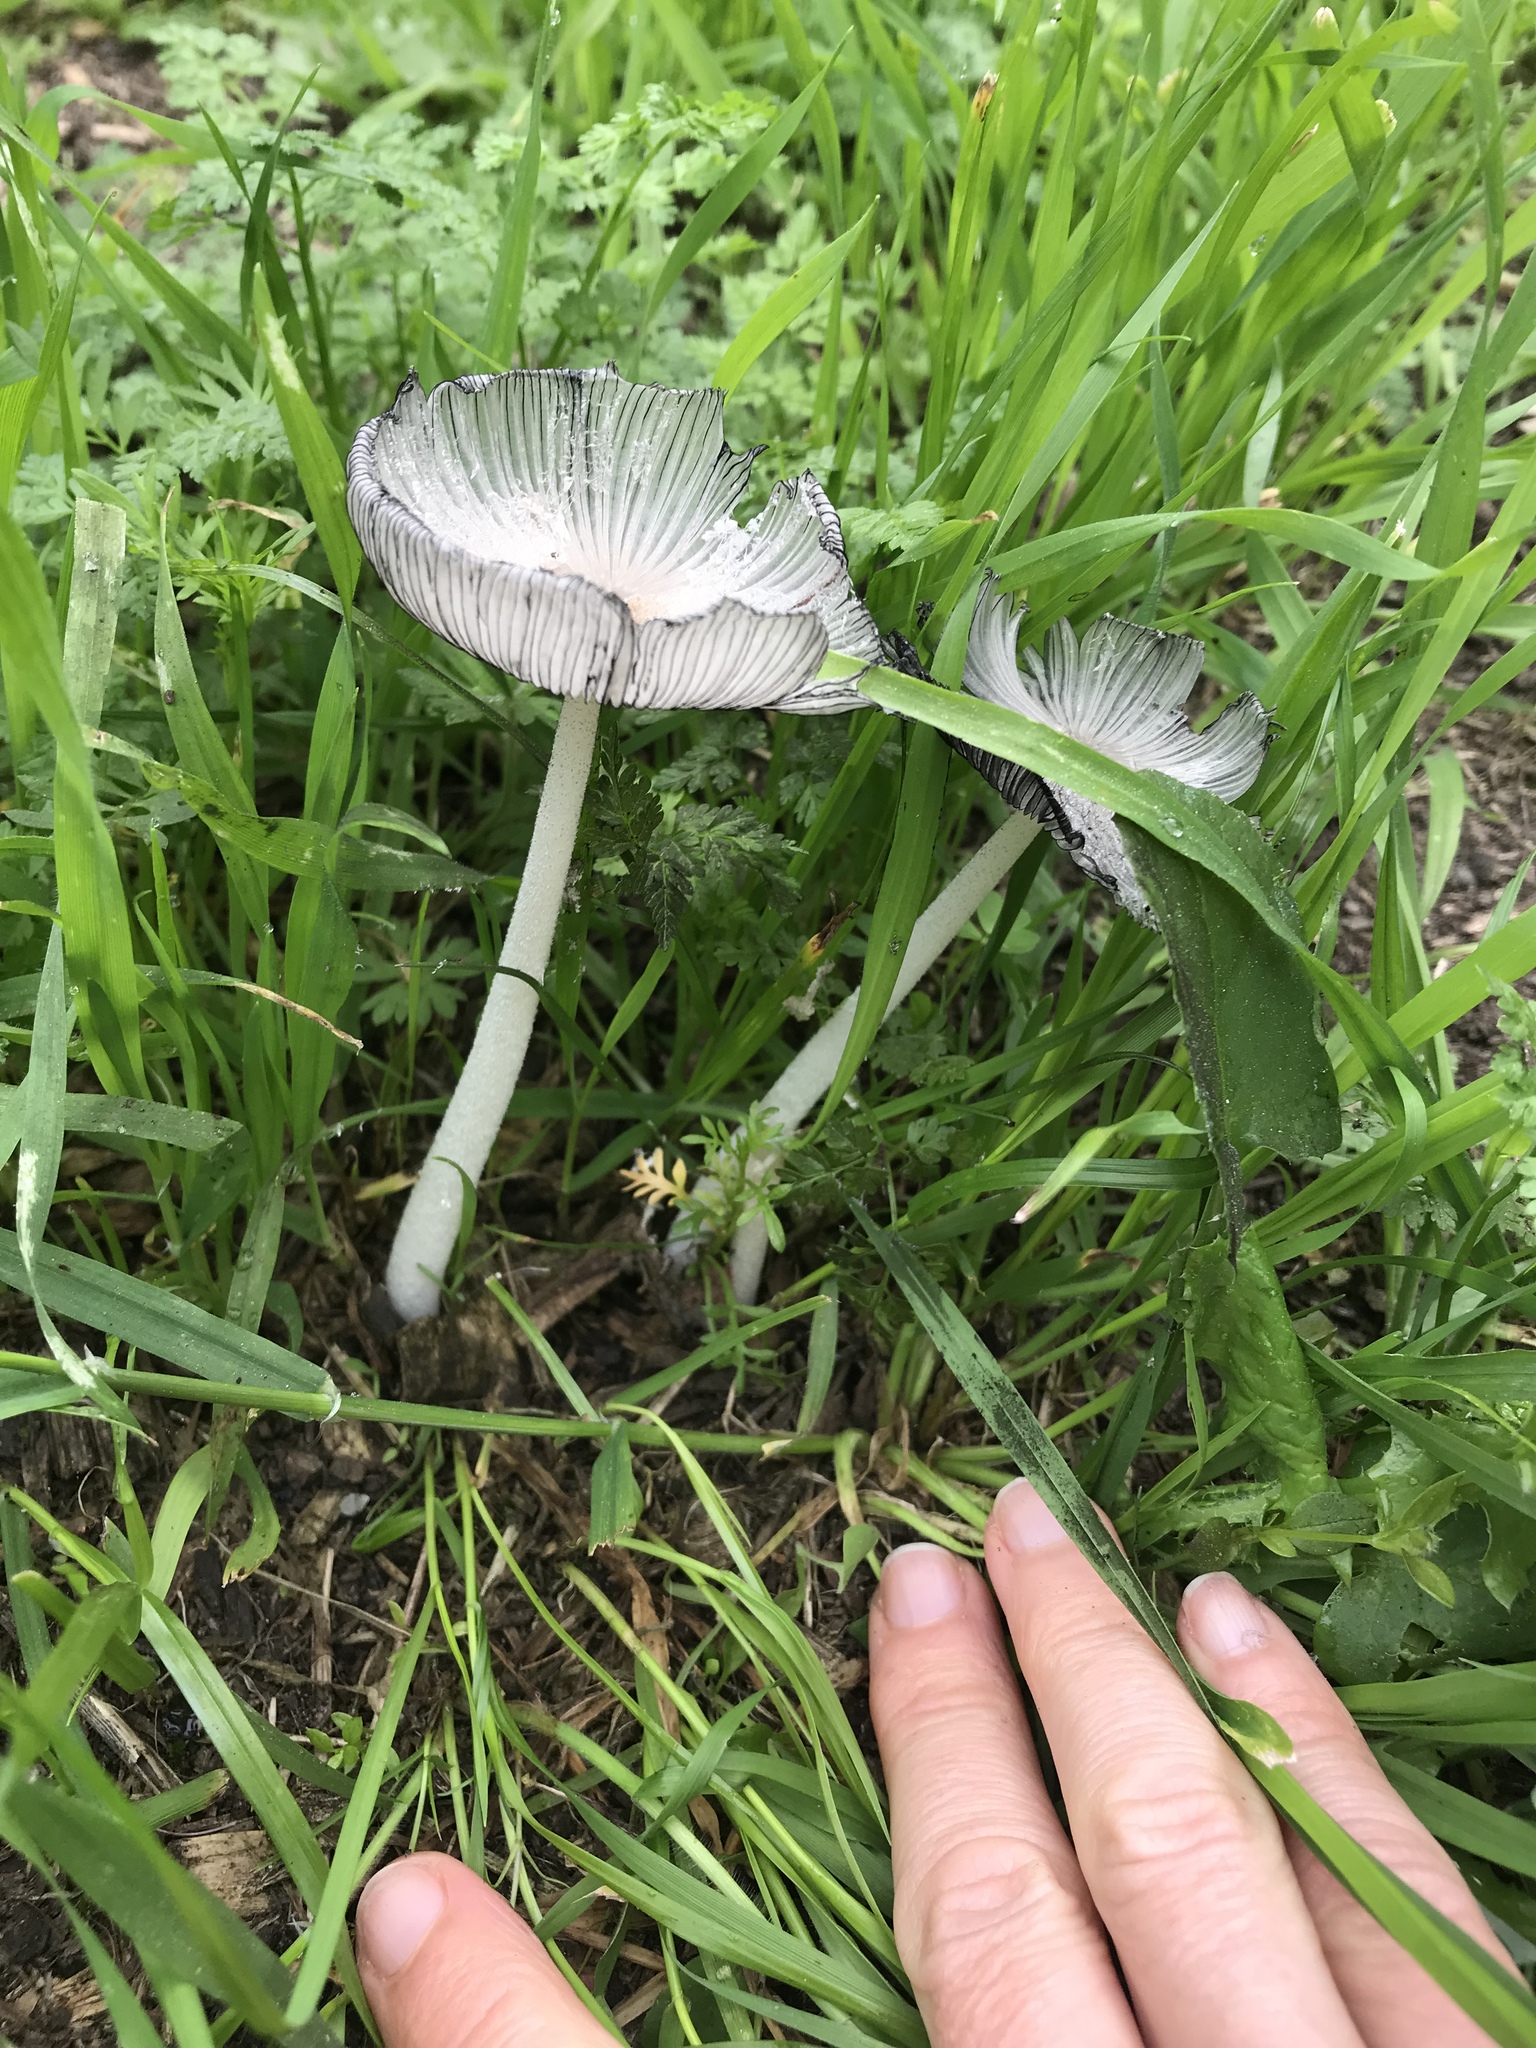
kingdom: Fungi
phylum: Basidiomycota
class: Agaricomycetes
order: Agaricales
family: Psathyrellaceae
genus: Coprinopsis
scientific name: Coprinopsis lagopus
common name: Hare'sfoot inkcap
